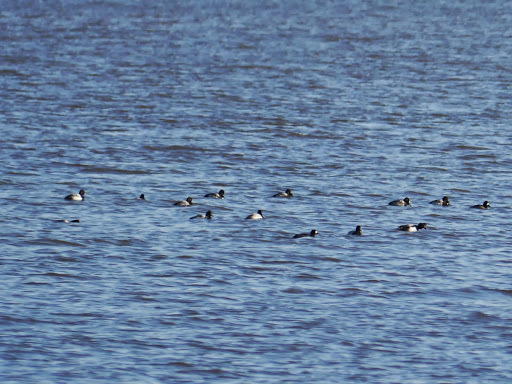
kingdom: Animalia
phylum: Chordata
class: Aves
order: Anseriformes
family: Anatidae
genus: Aythya
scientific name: Aythya
